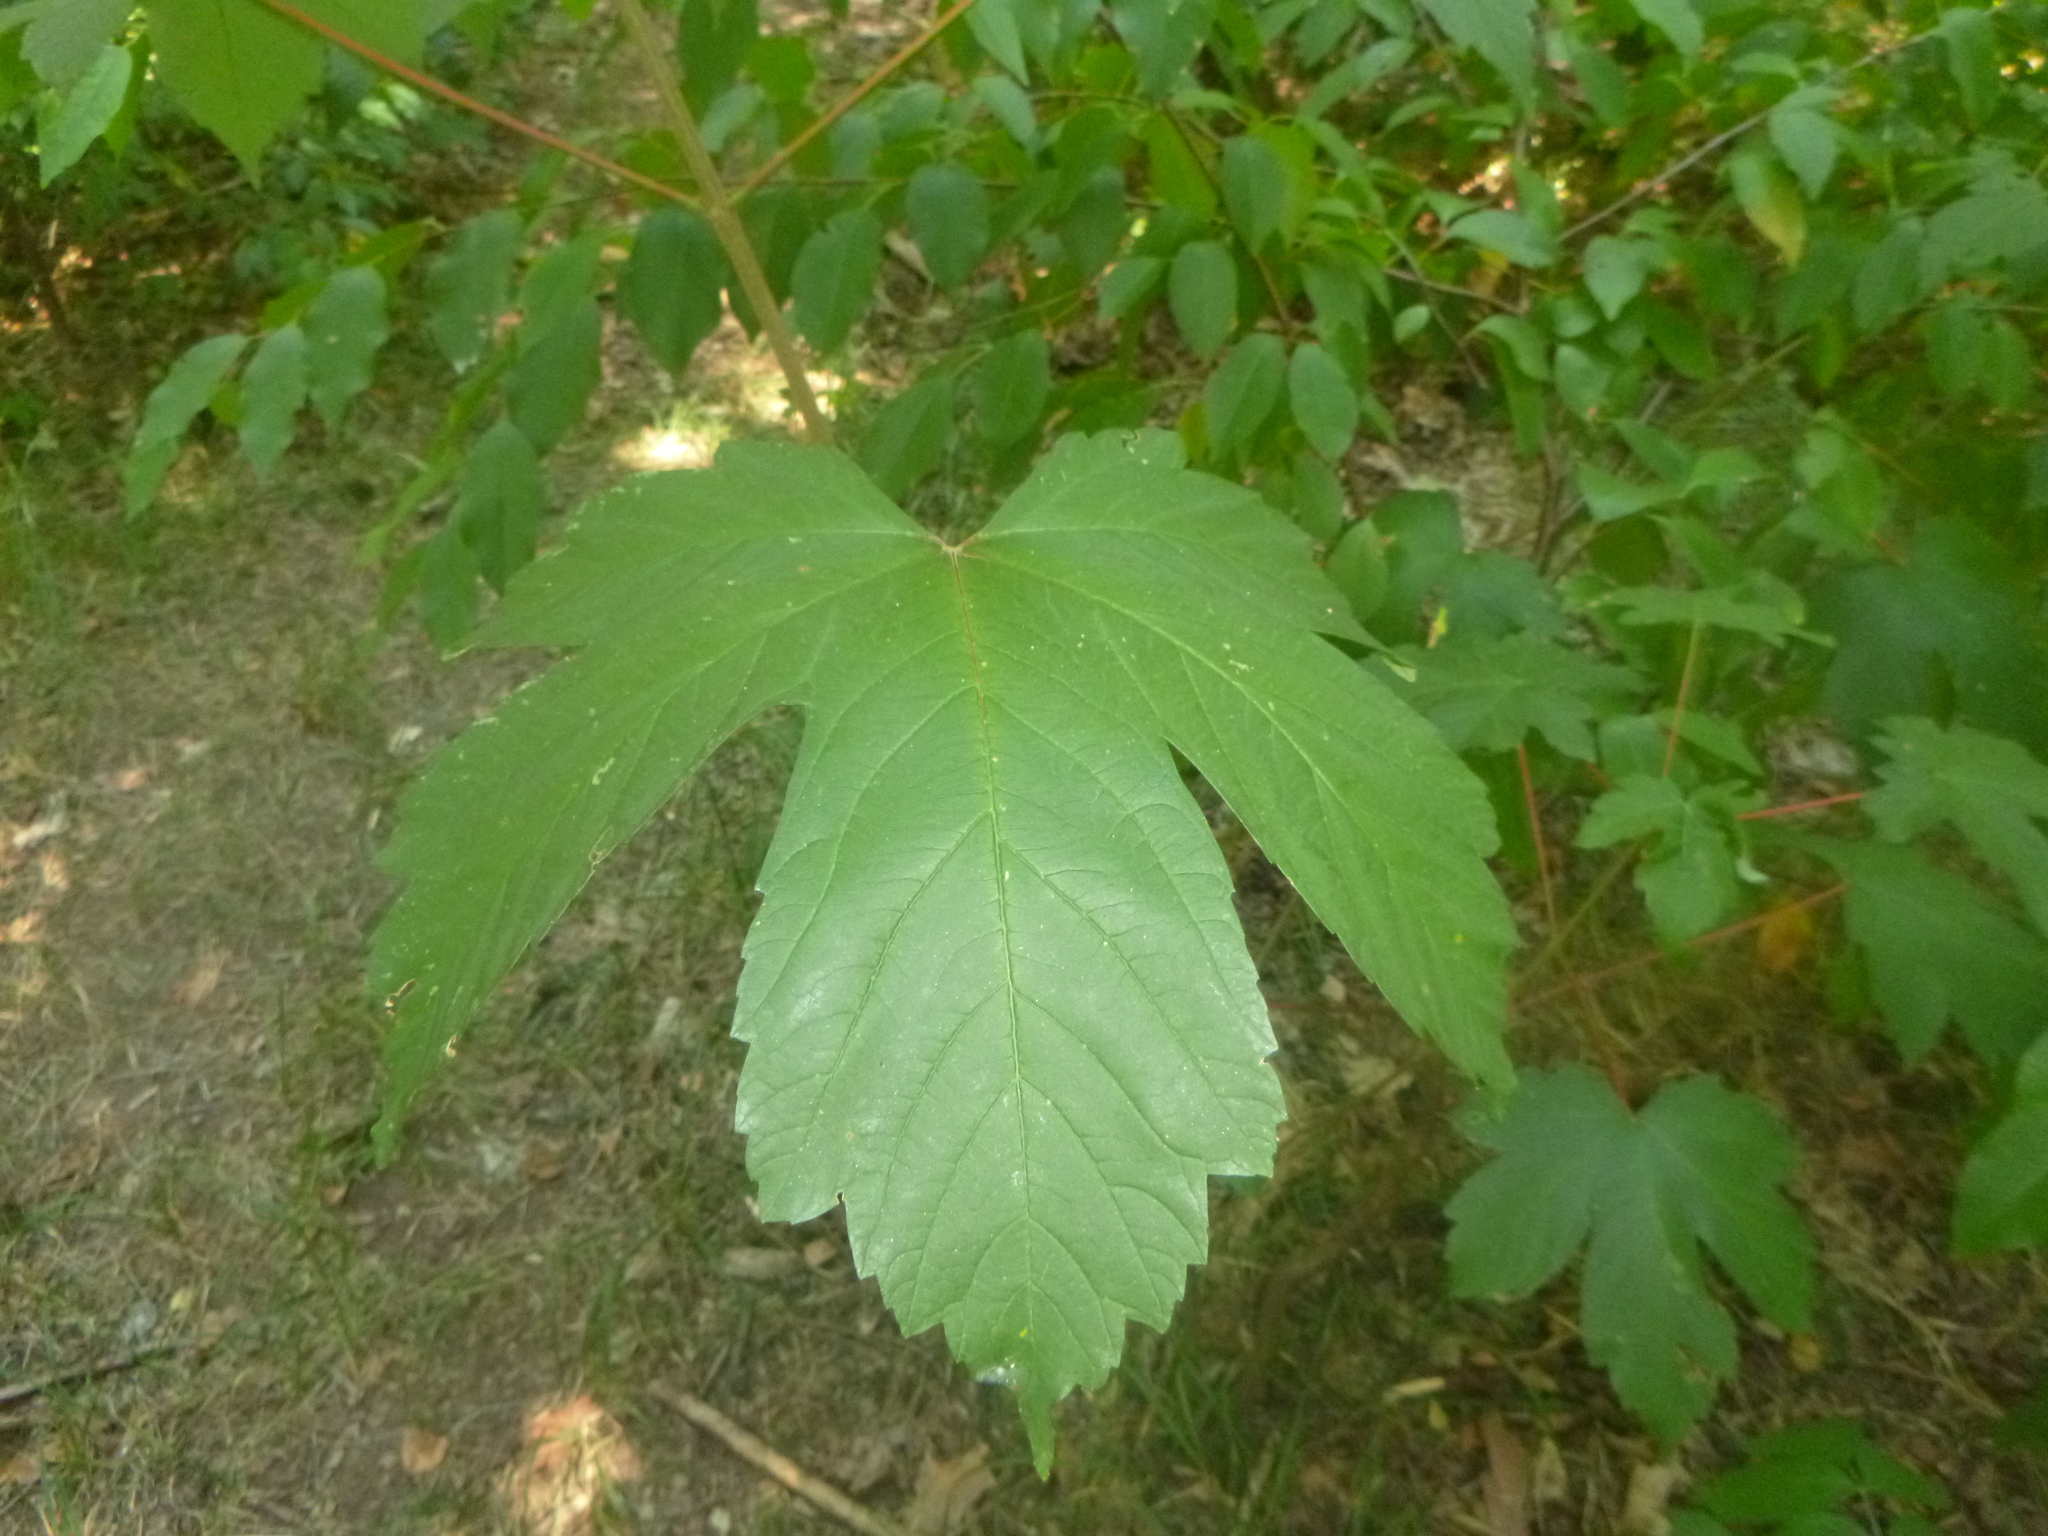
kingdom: Plantae
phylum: Tracheophyta
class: Magnoliopsida
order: Sapindales
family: Sapindaceae
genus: Acer
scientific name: Acer pseudoplatanus
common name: Sycamore
